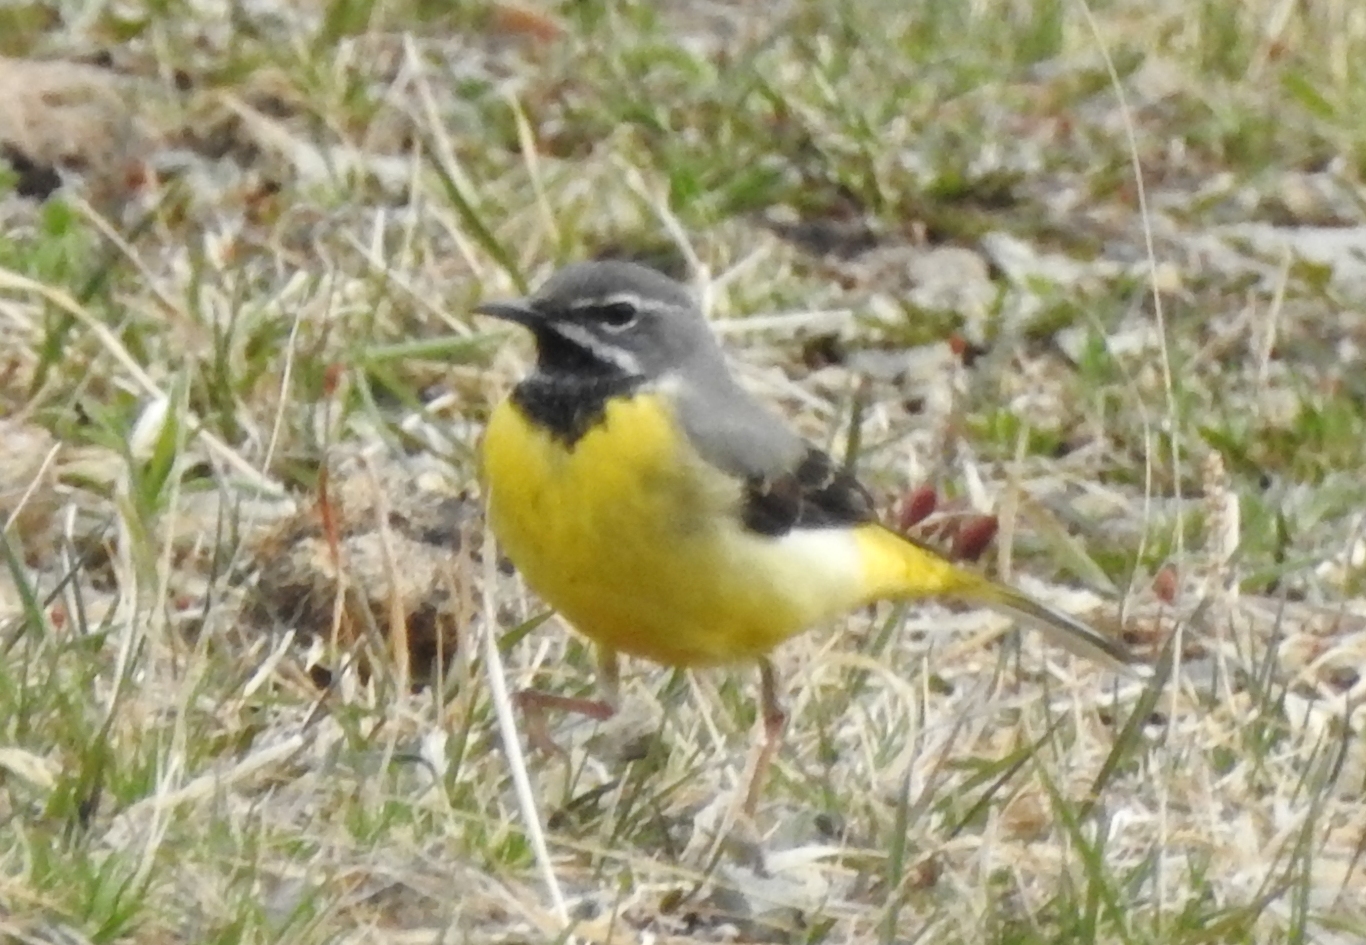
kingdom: Animalia
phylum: Chordata
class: Aves
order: Passeriformes
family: Motacillidae
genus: Motacilla
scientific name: Motacilla cinerea
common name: Grey wagtail
